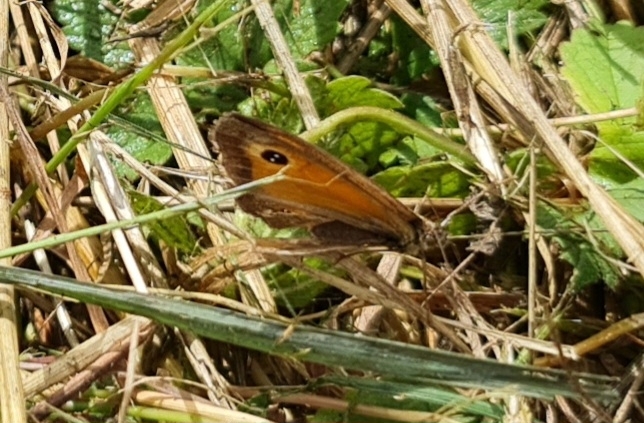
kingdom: Animalia
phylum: Arthropoda
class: Insecta
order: Lepidoptera
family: Nymphalidae
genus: Pyronia
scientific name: Pyronia tithonus
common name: Gatekeeper
